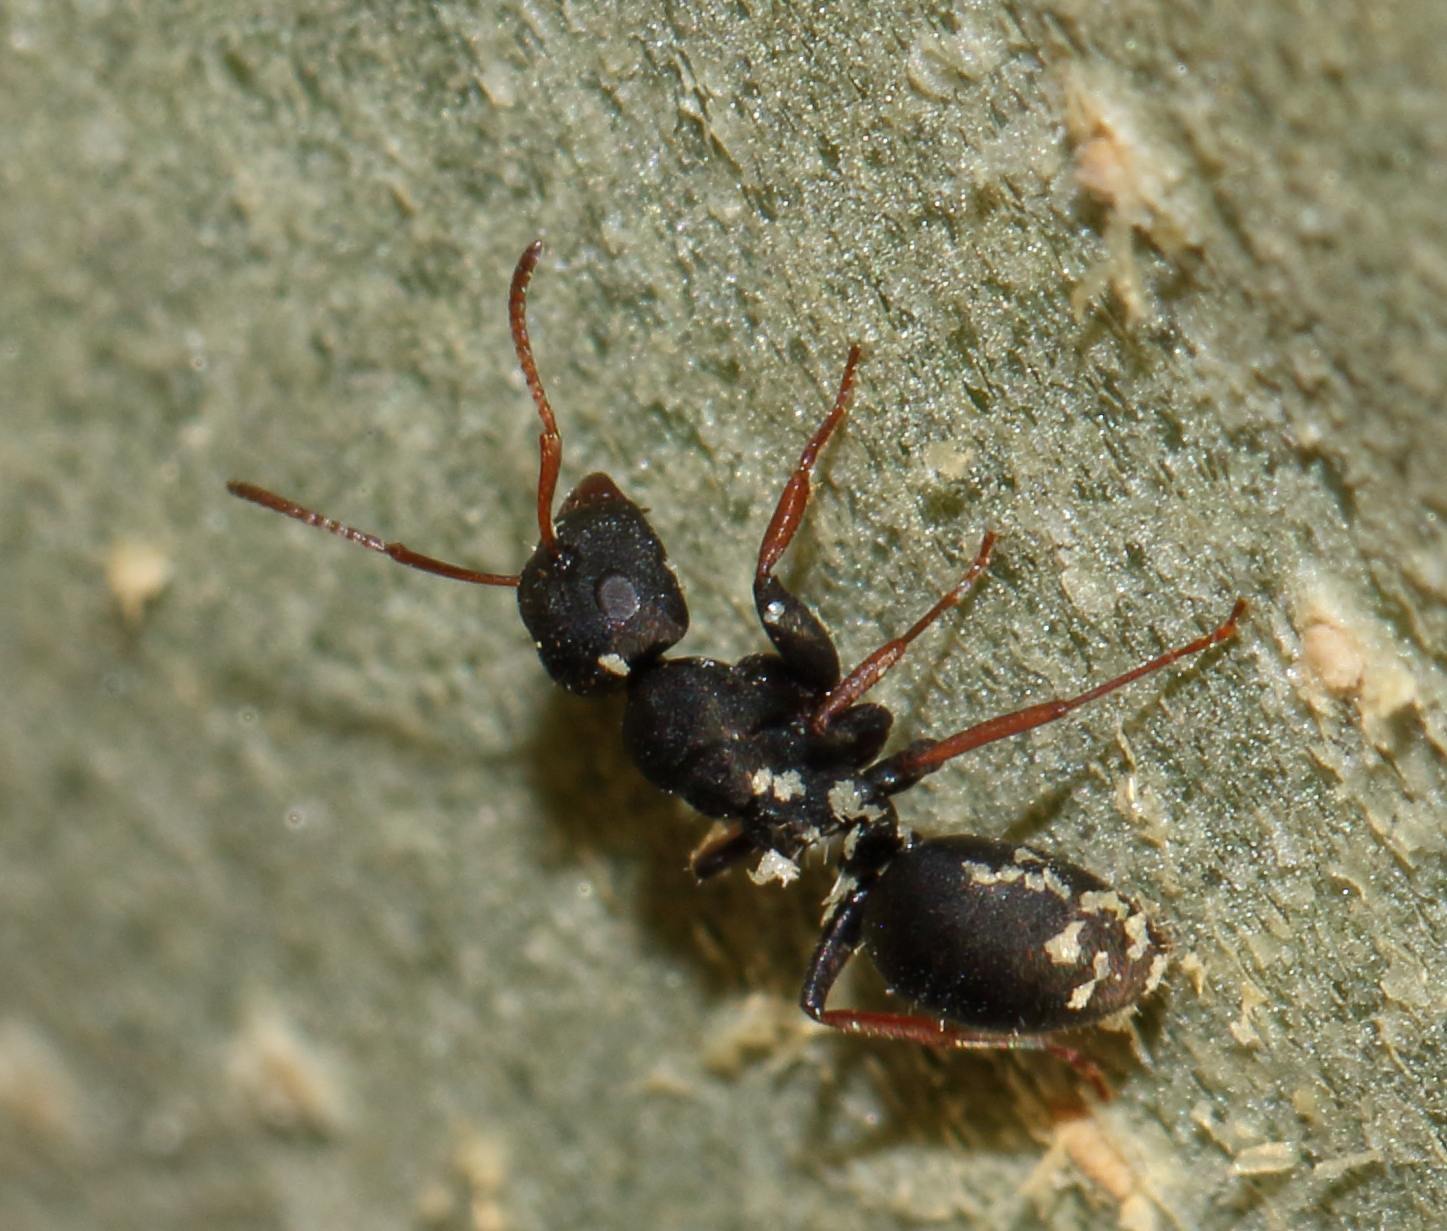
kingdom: Animalia
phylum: Arthropoda
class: Insecta
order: Hymenoptera
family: Formicidae
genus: Camponotus
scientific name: Camponotus braunsi
